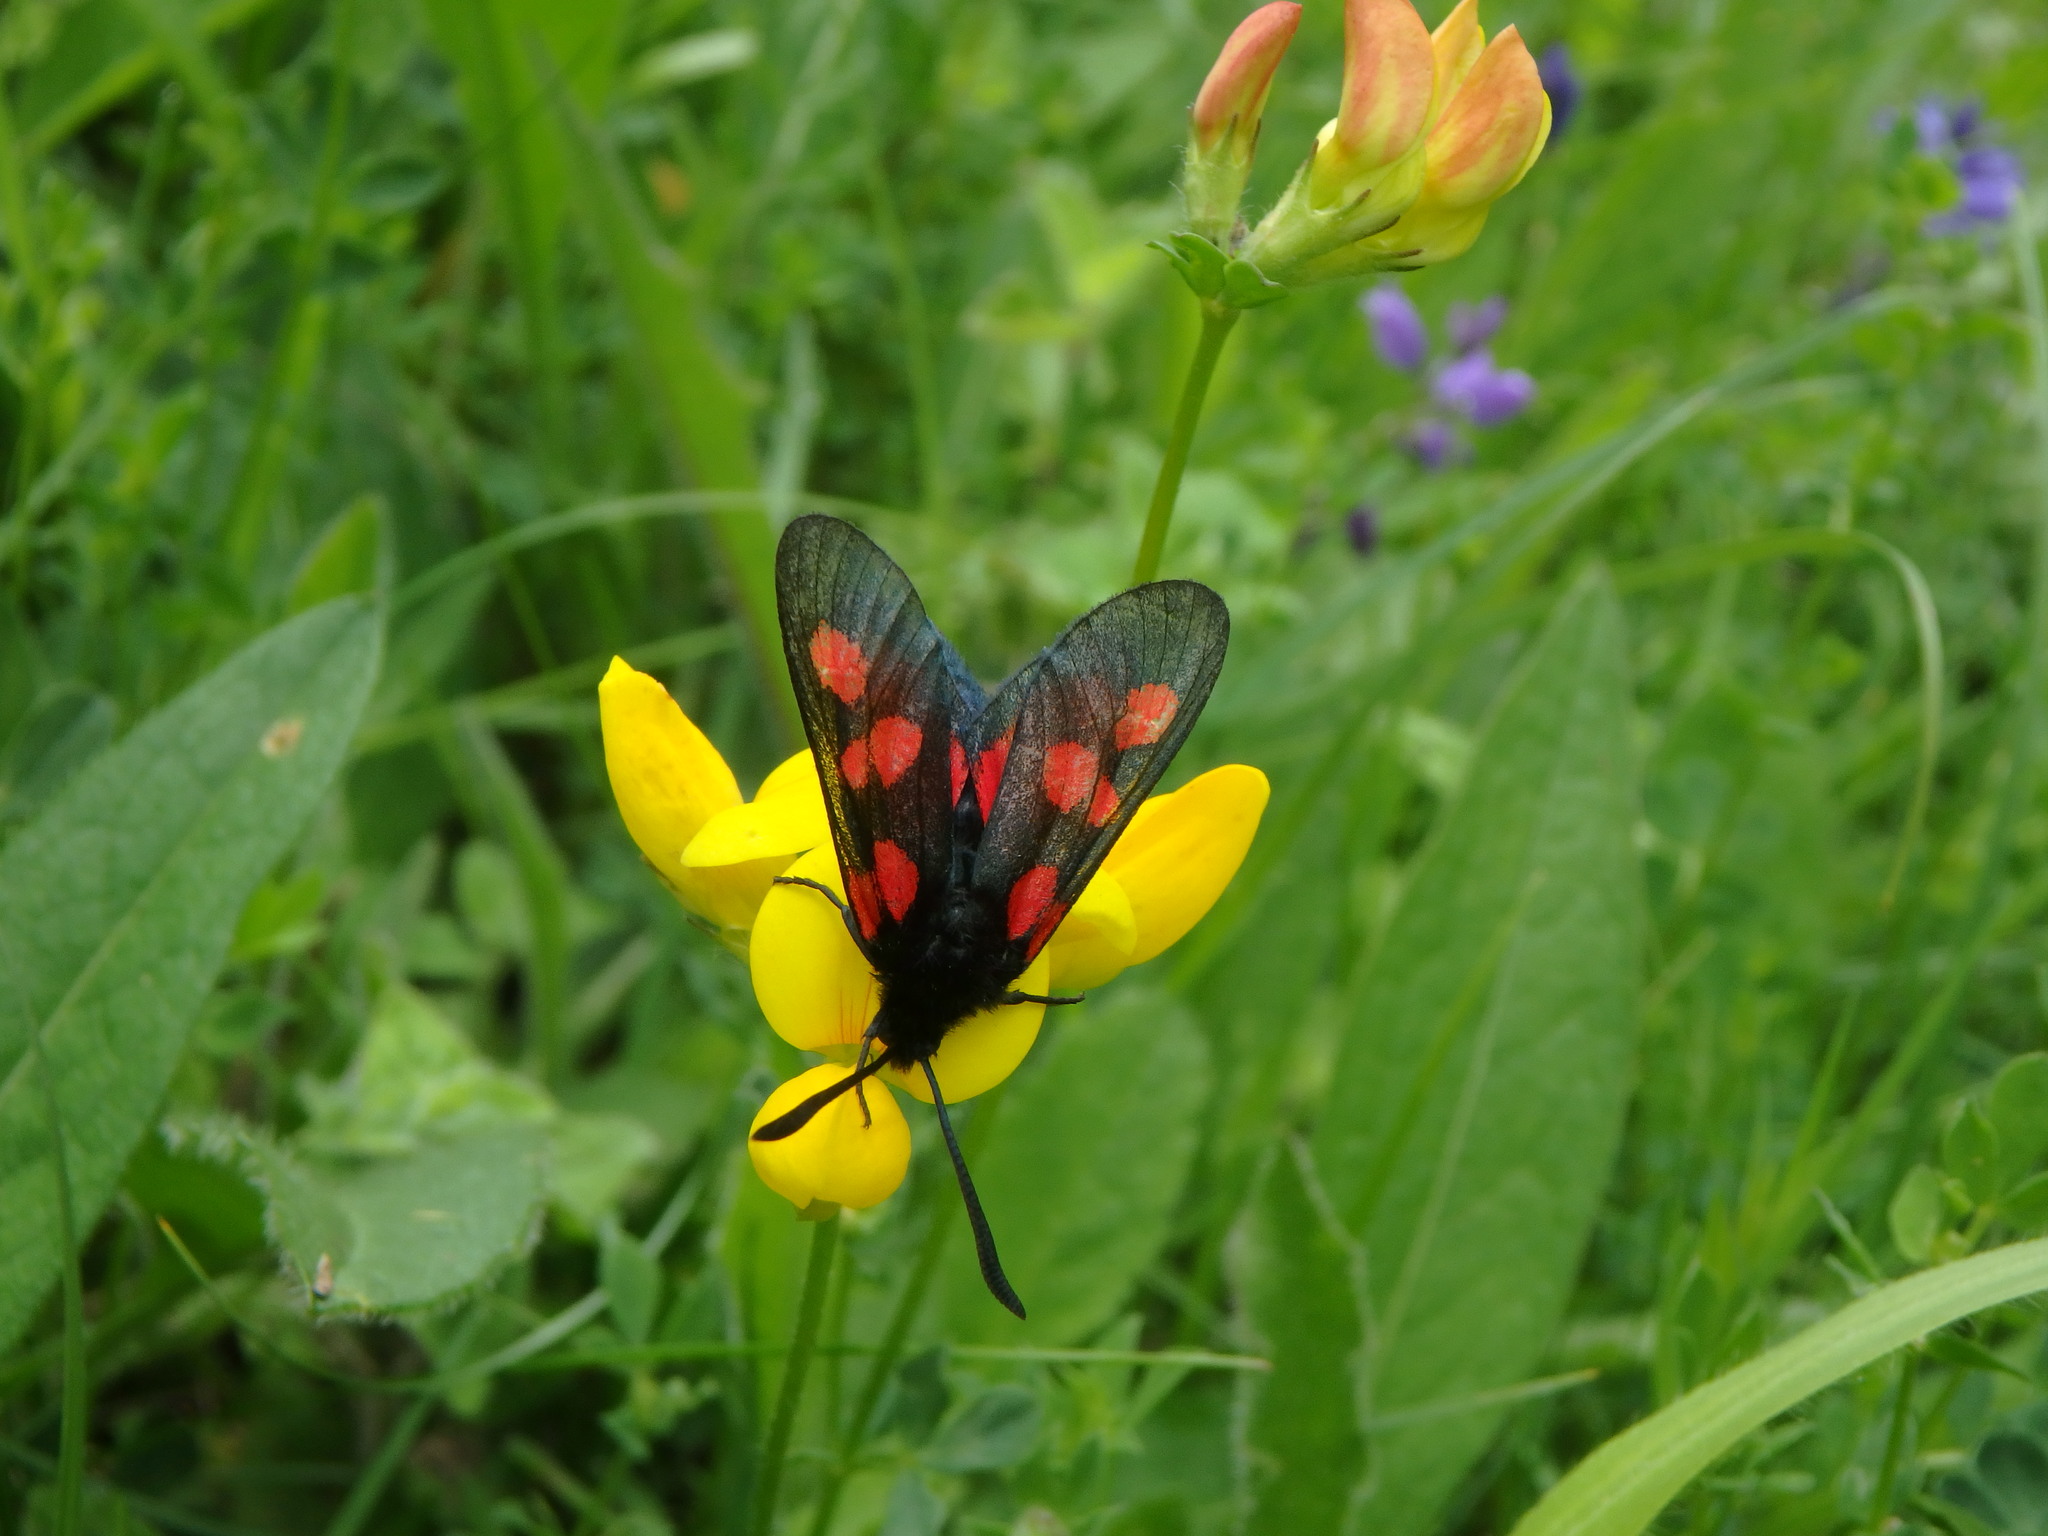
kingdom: Animalia
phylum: Arthropoda
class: Insecta
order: Lepidoptera
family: Zygaenidae
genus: Zygaena
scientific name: Zygaena trifolii
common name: Five-spot burnet
